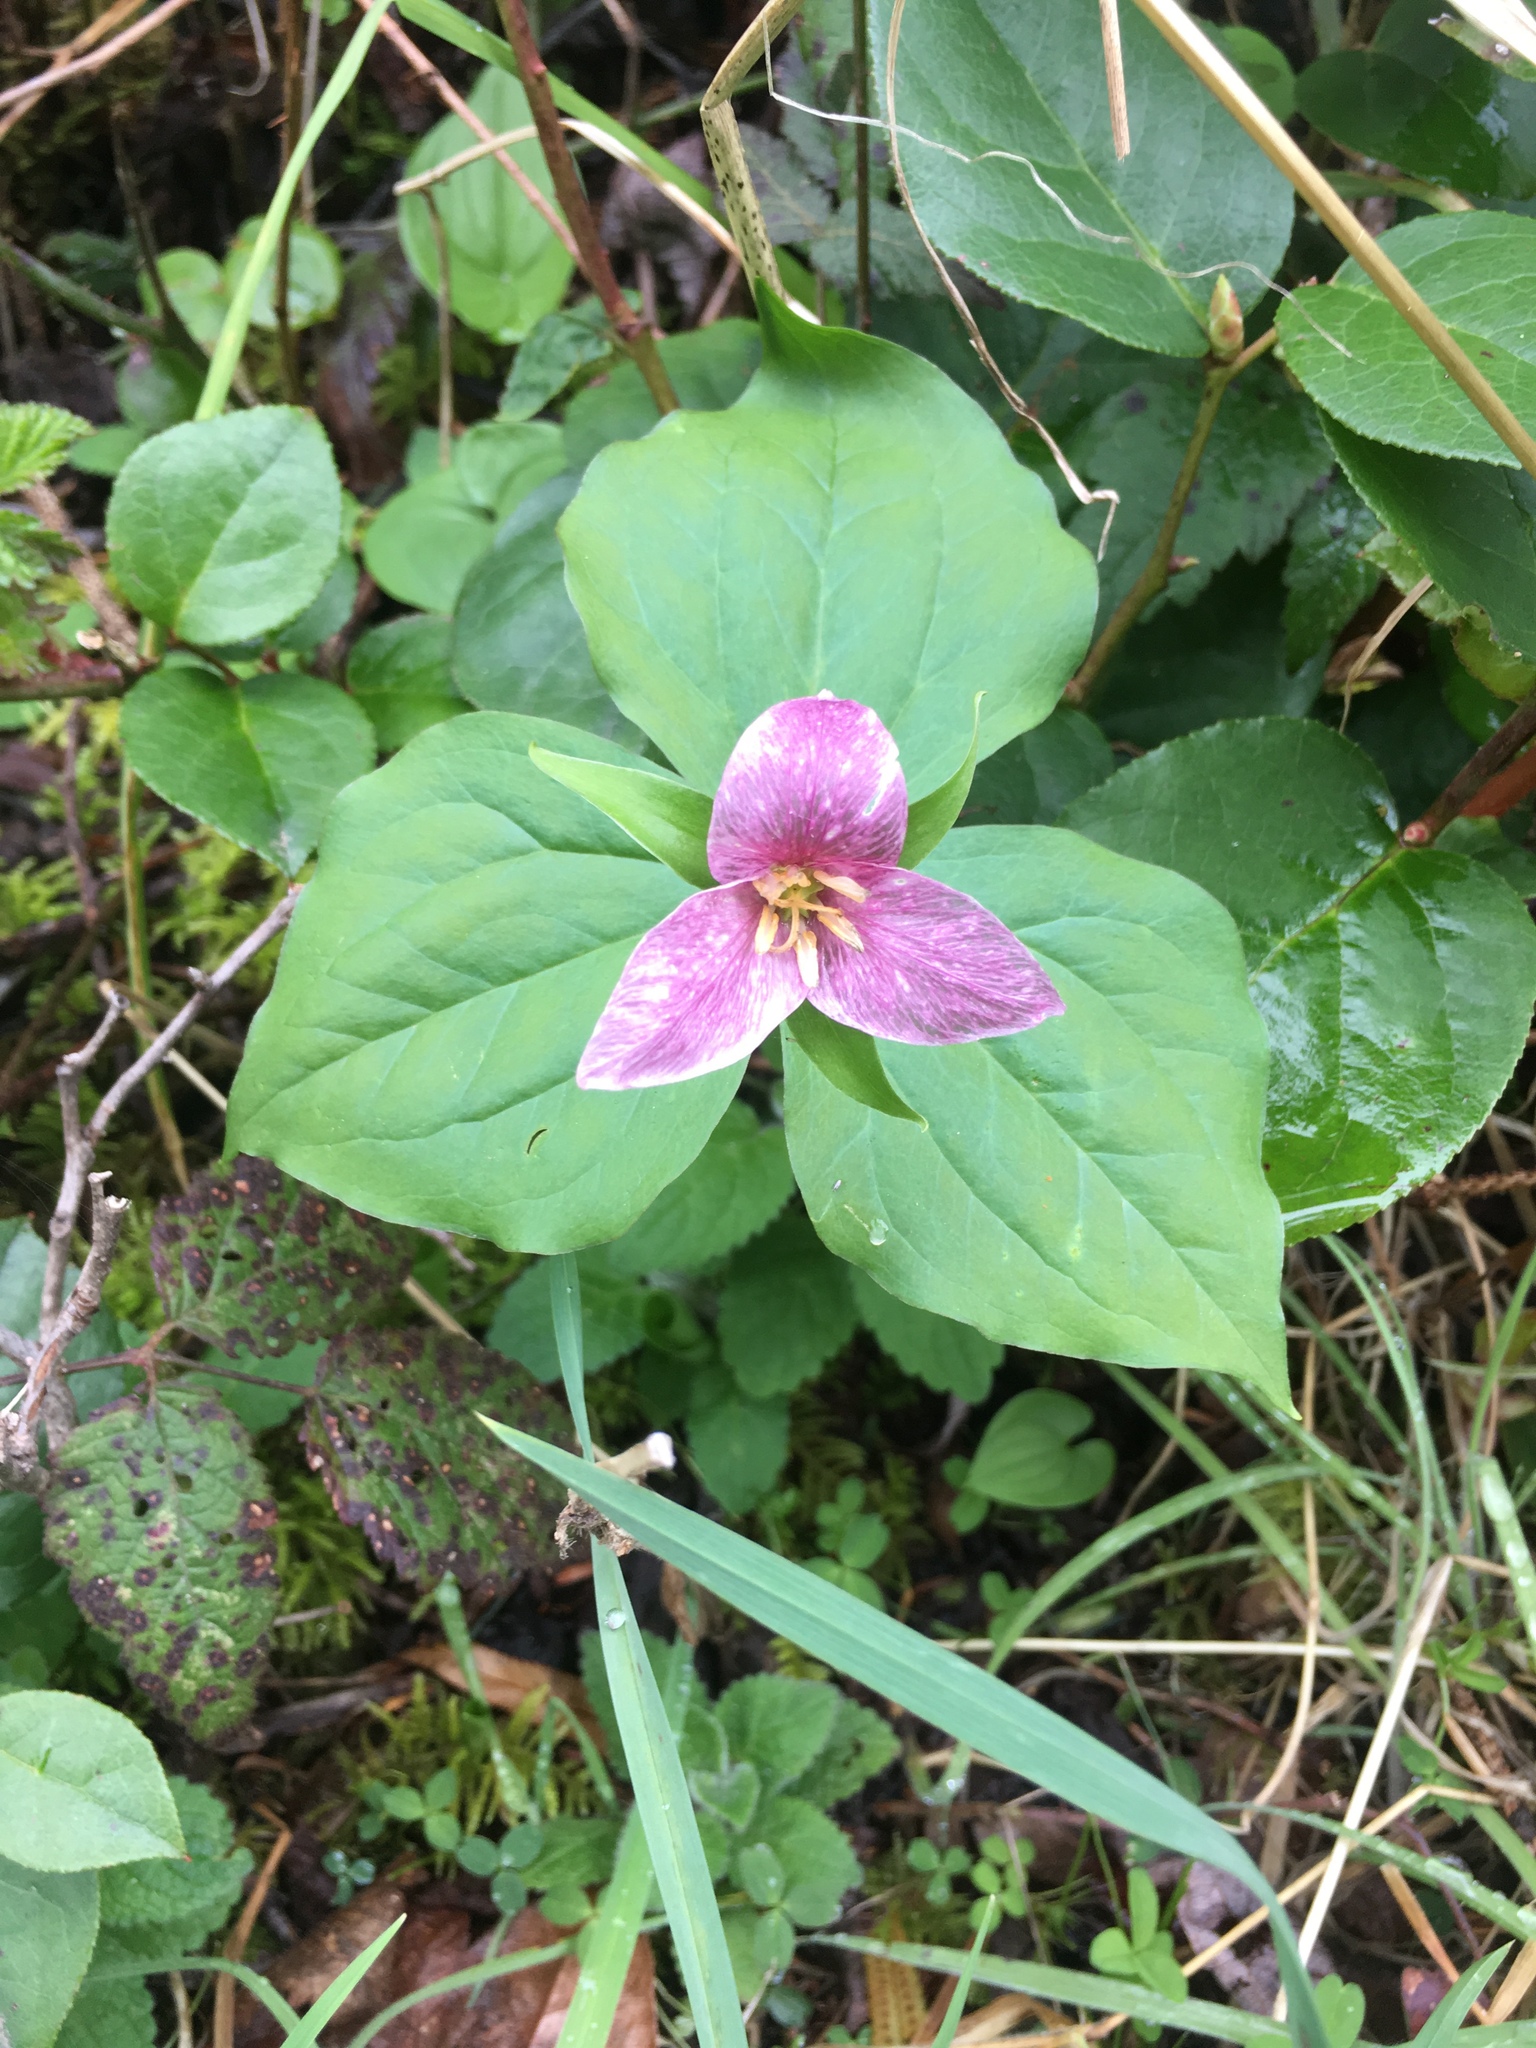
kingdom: Plantae
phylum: Tracheophyta
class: Liliopsida
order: Liliales
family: Melanthiaceae
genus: Trillium
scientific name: Trillium ovatum
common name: Pacific trillium
